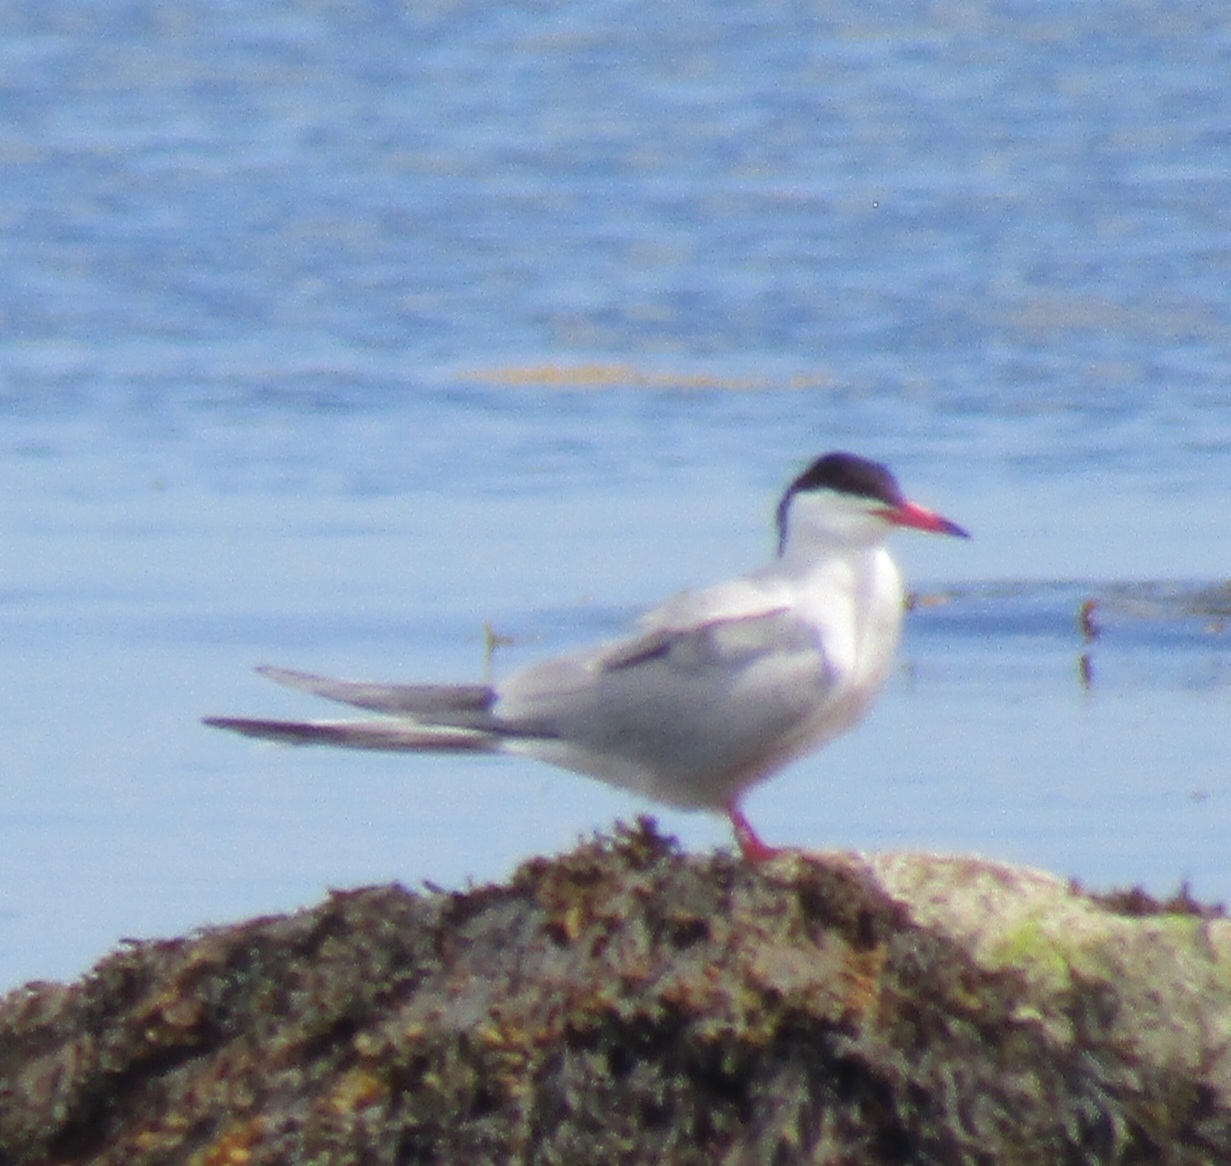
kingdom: Animalia
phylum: Chordata
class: Aves
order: Charadriiformes
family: Laridae
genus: Sterna
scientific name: Sterna hirundo
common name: Common tern
